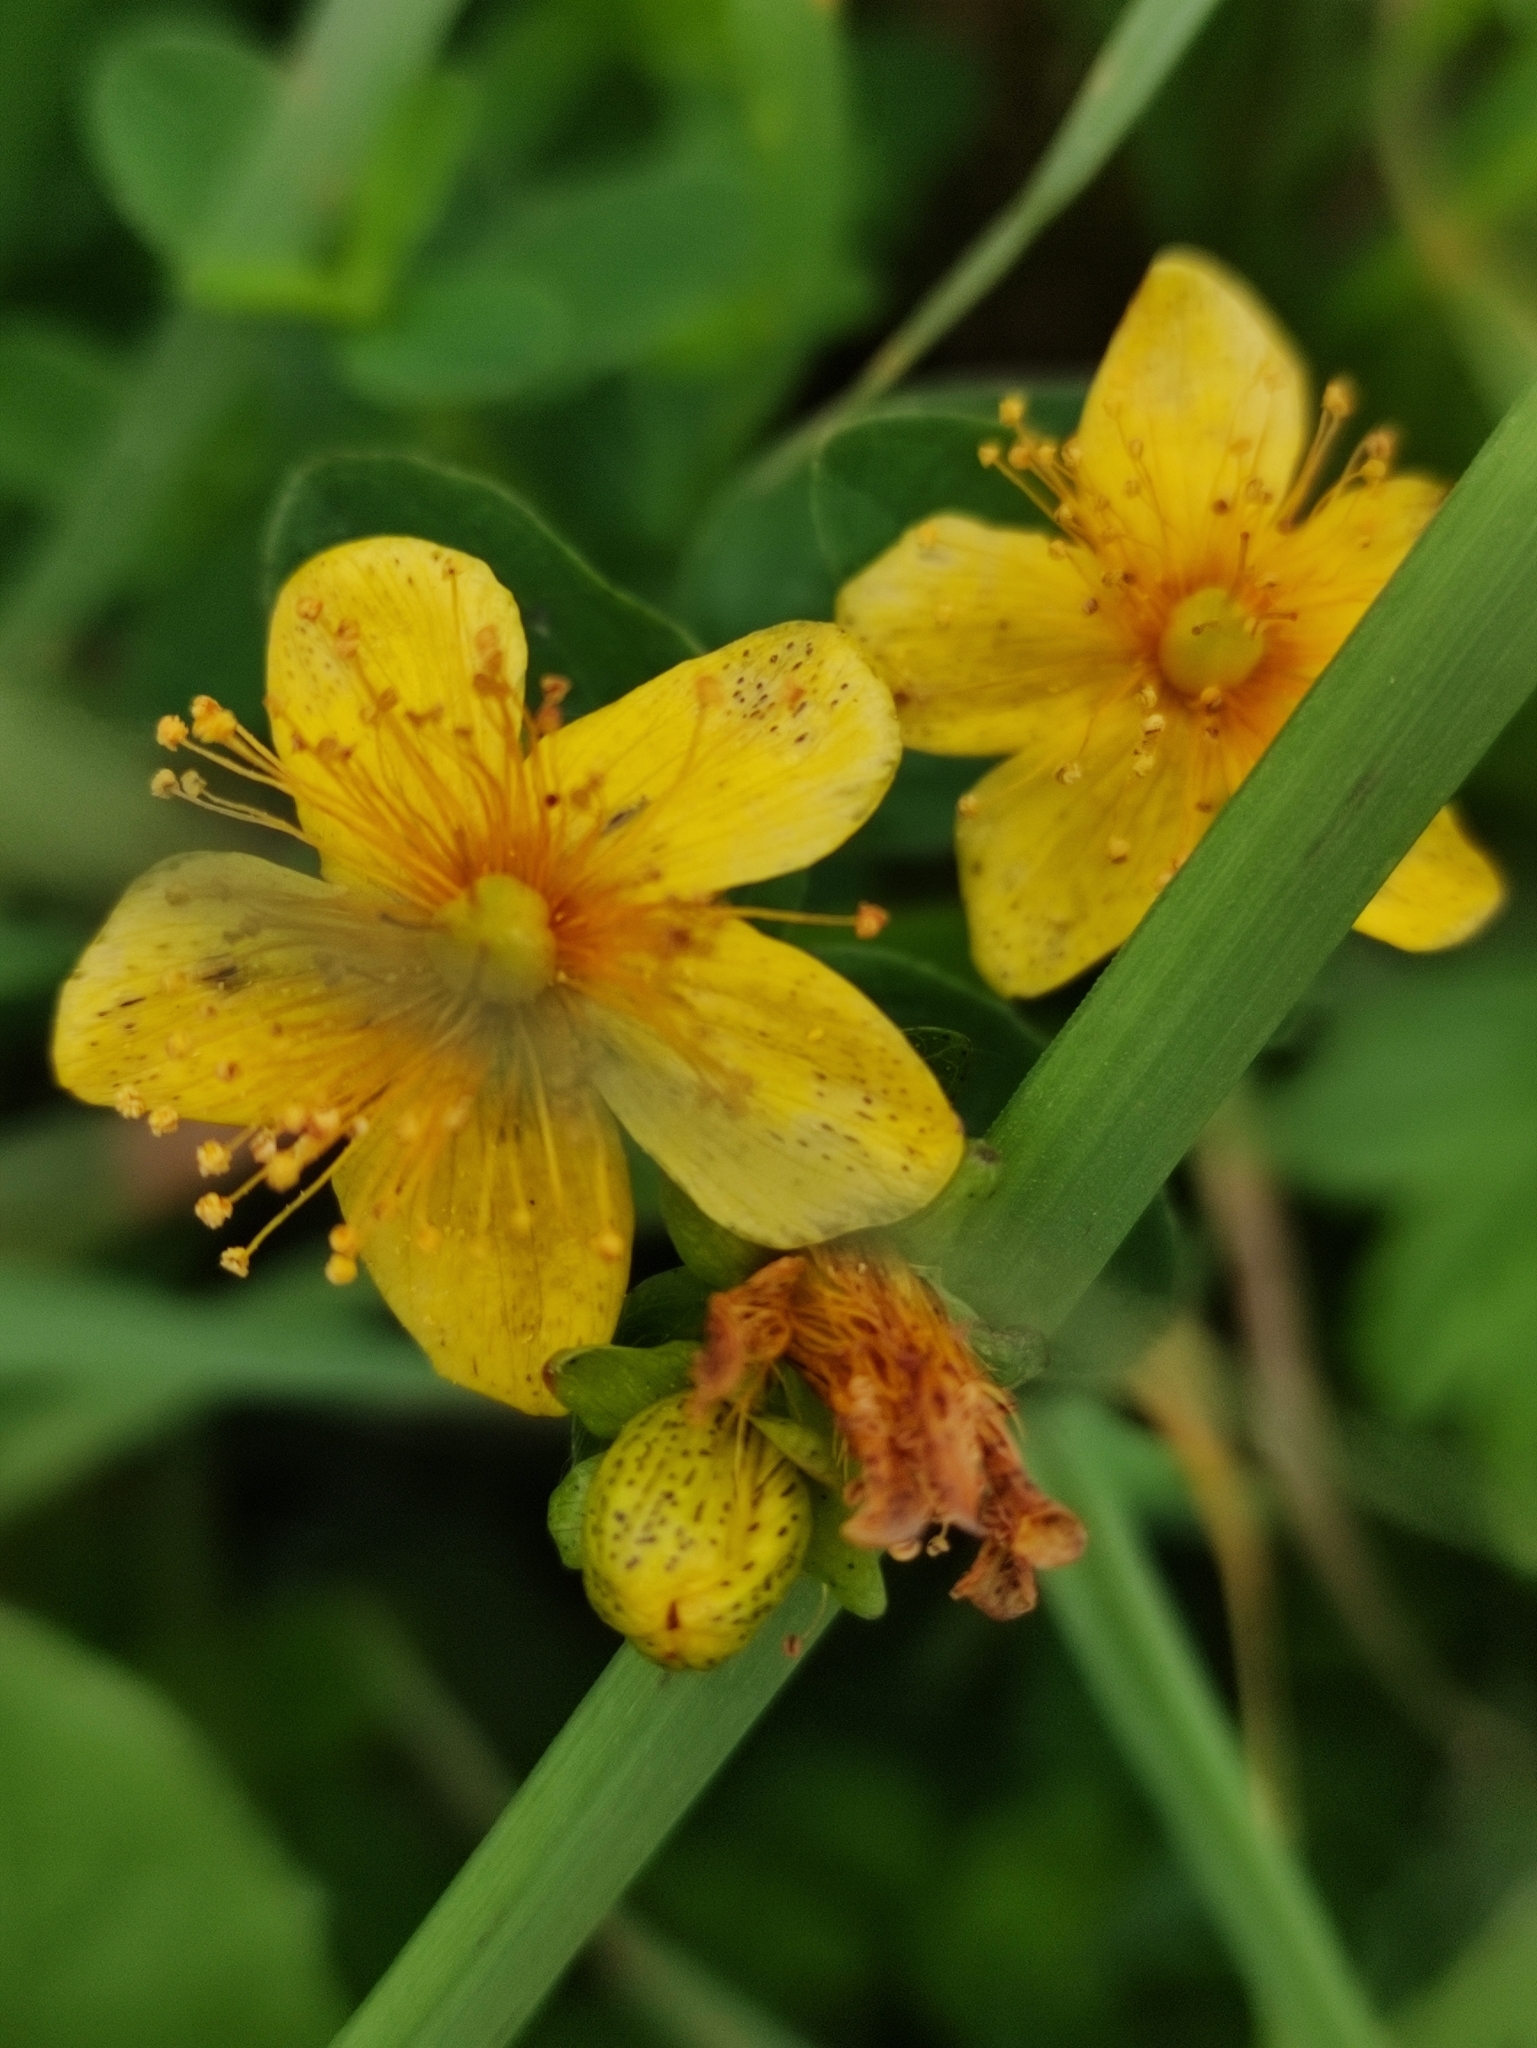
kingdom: Plantae
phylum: Tracheophyta
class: Magnoliopsida
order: Malpighiales
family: Hypericaceae
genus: Hypericum
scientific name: Hypericum maculatum
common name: Imperforate st. john's-wort
